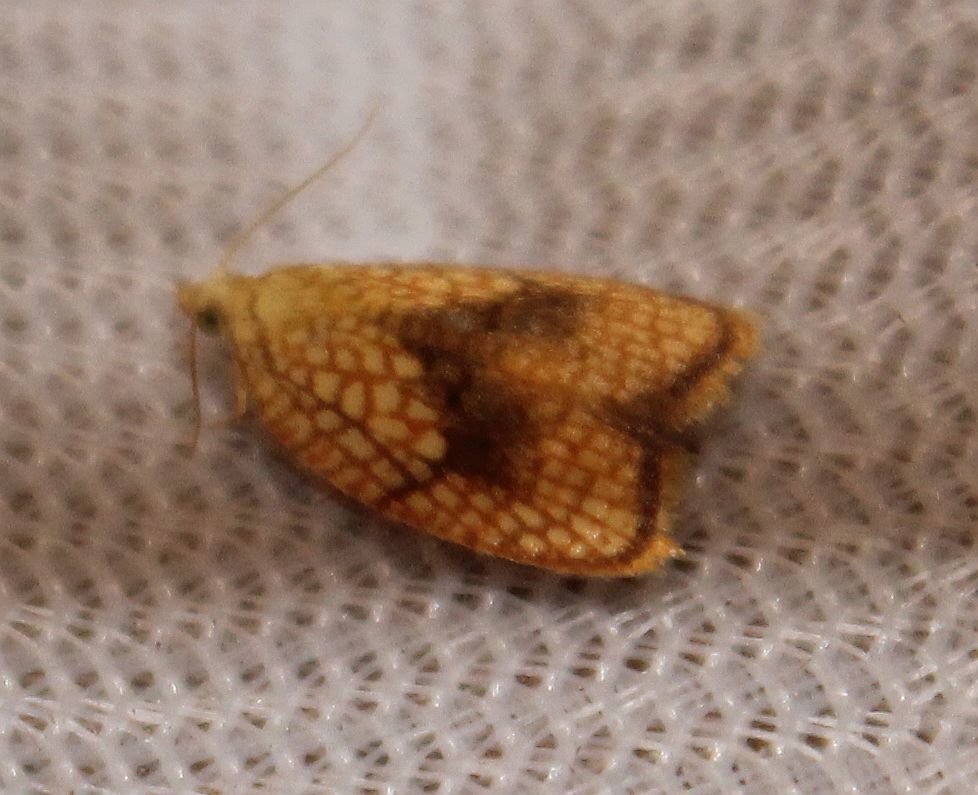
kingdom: Animalia
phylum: Arthropoda
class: Insecta
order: Lepidoptera
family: Tortricidae
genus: Acleris
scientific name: Acleris forsskaleana
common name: Maple button
